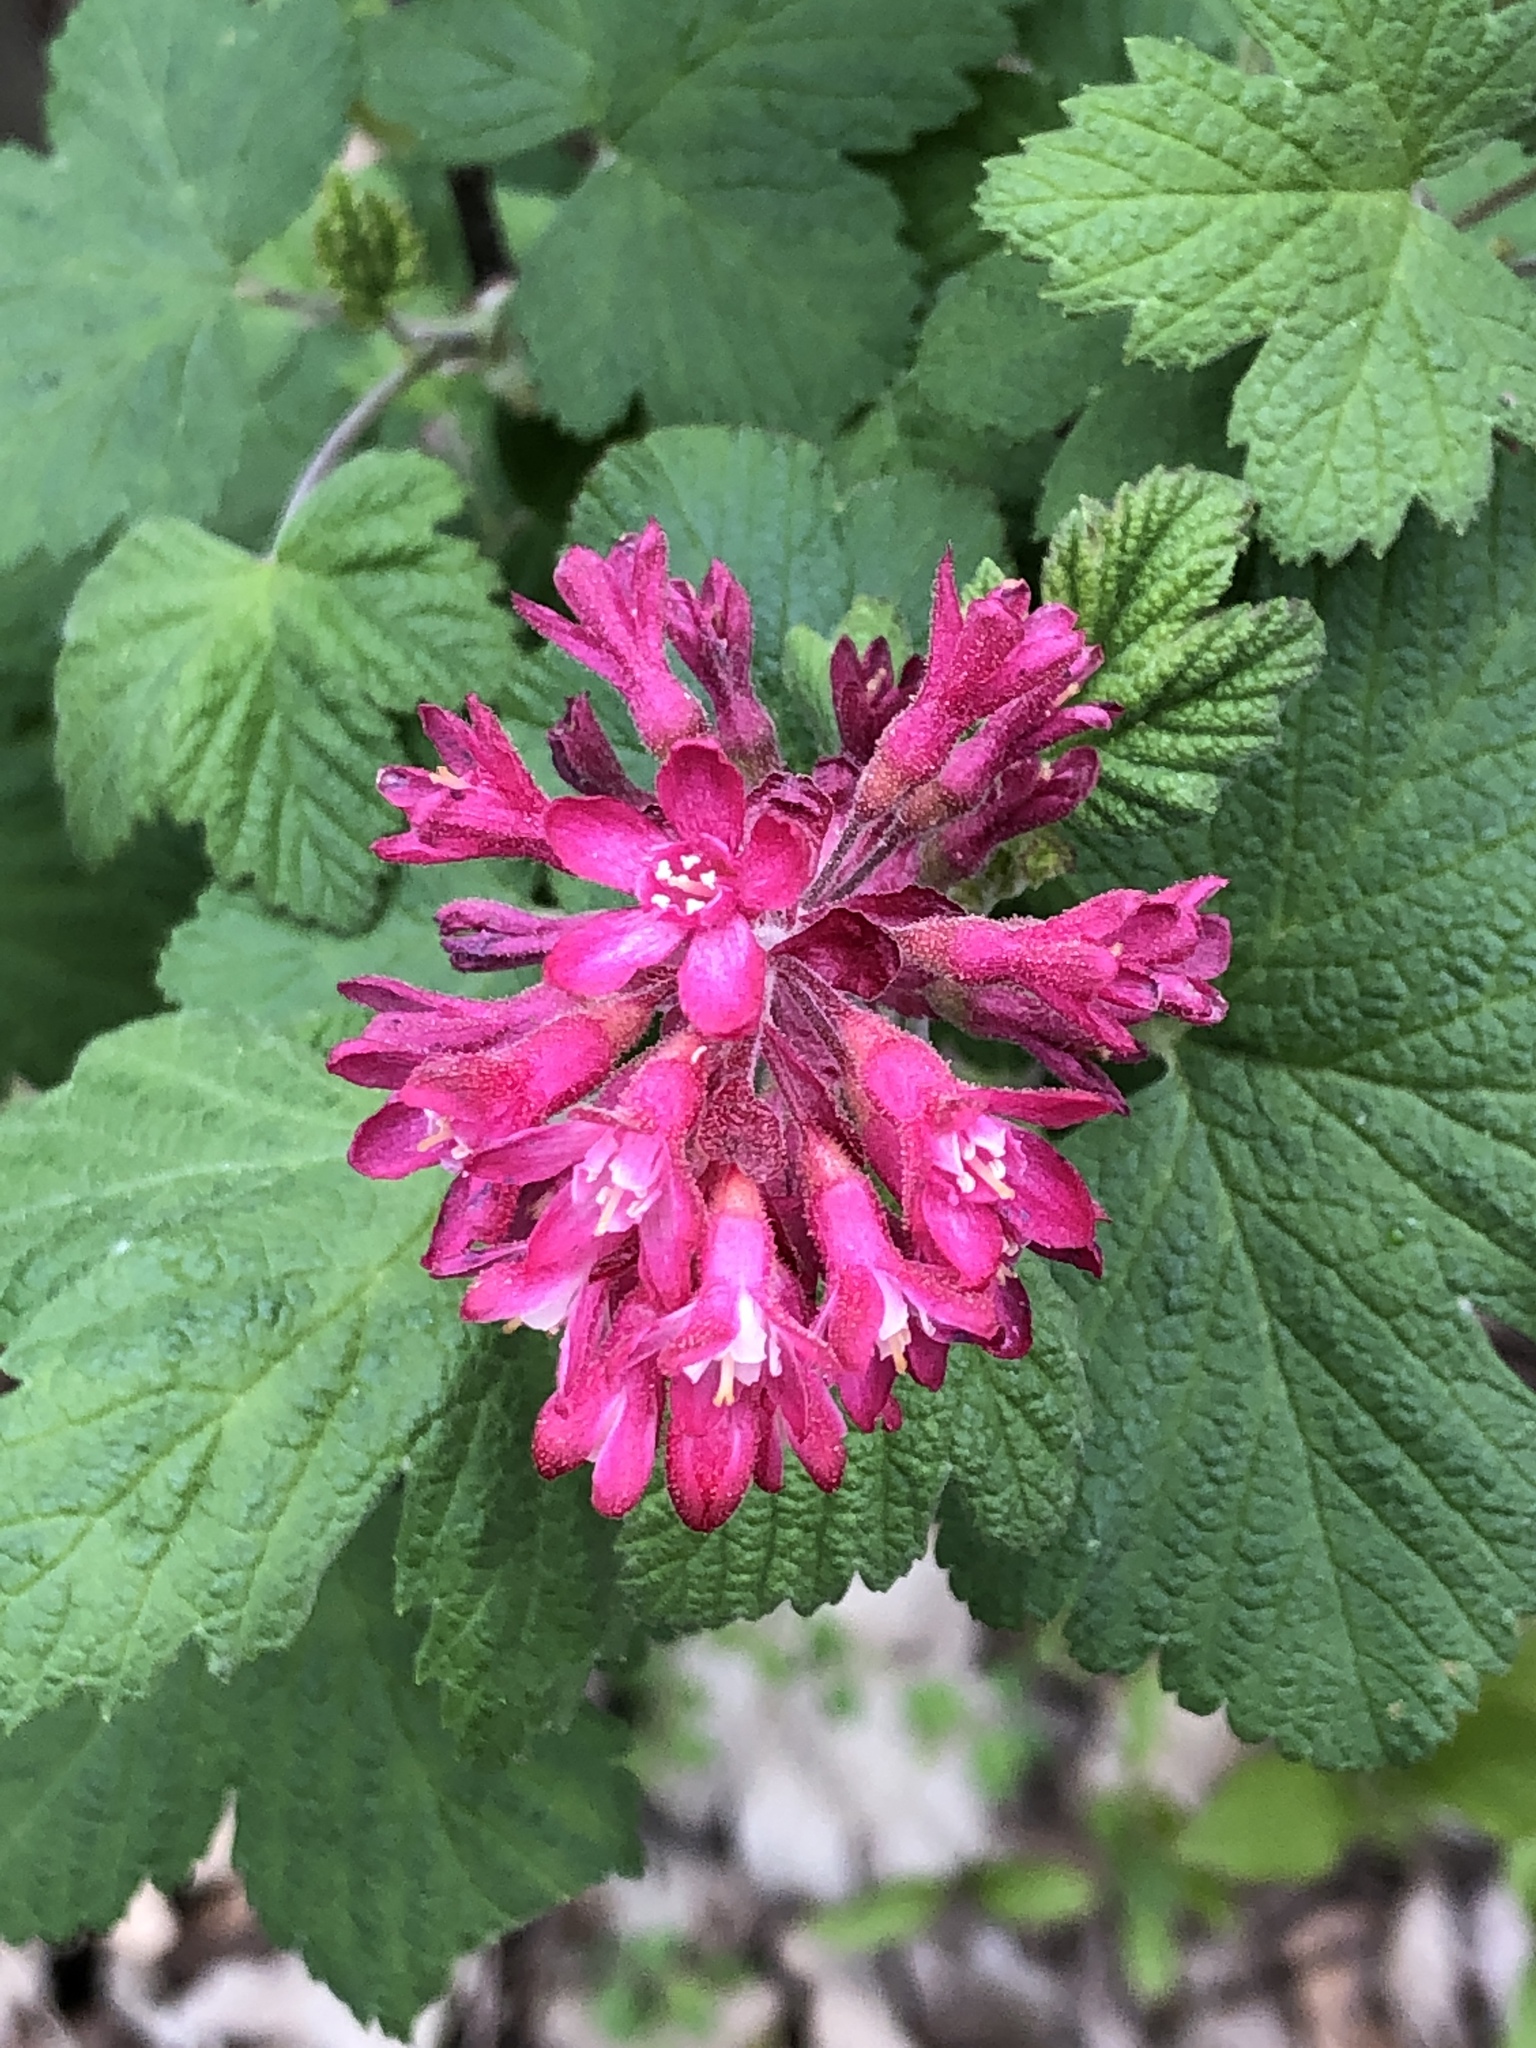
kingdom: Plantae
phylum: Tracheophyta
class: Magnoliopsida
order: Saxifragales
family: Grossulariaceae
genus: Ribes
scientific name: Ribes sanguineum
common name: Flowering currant
